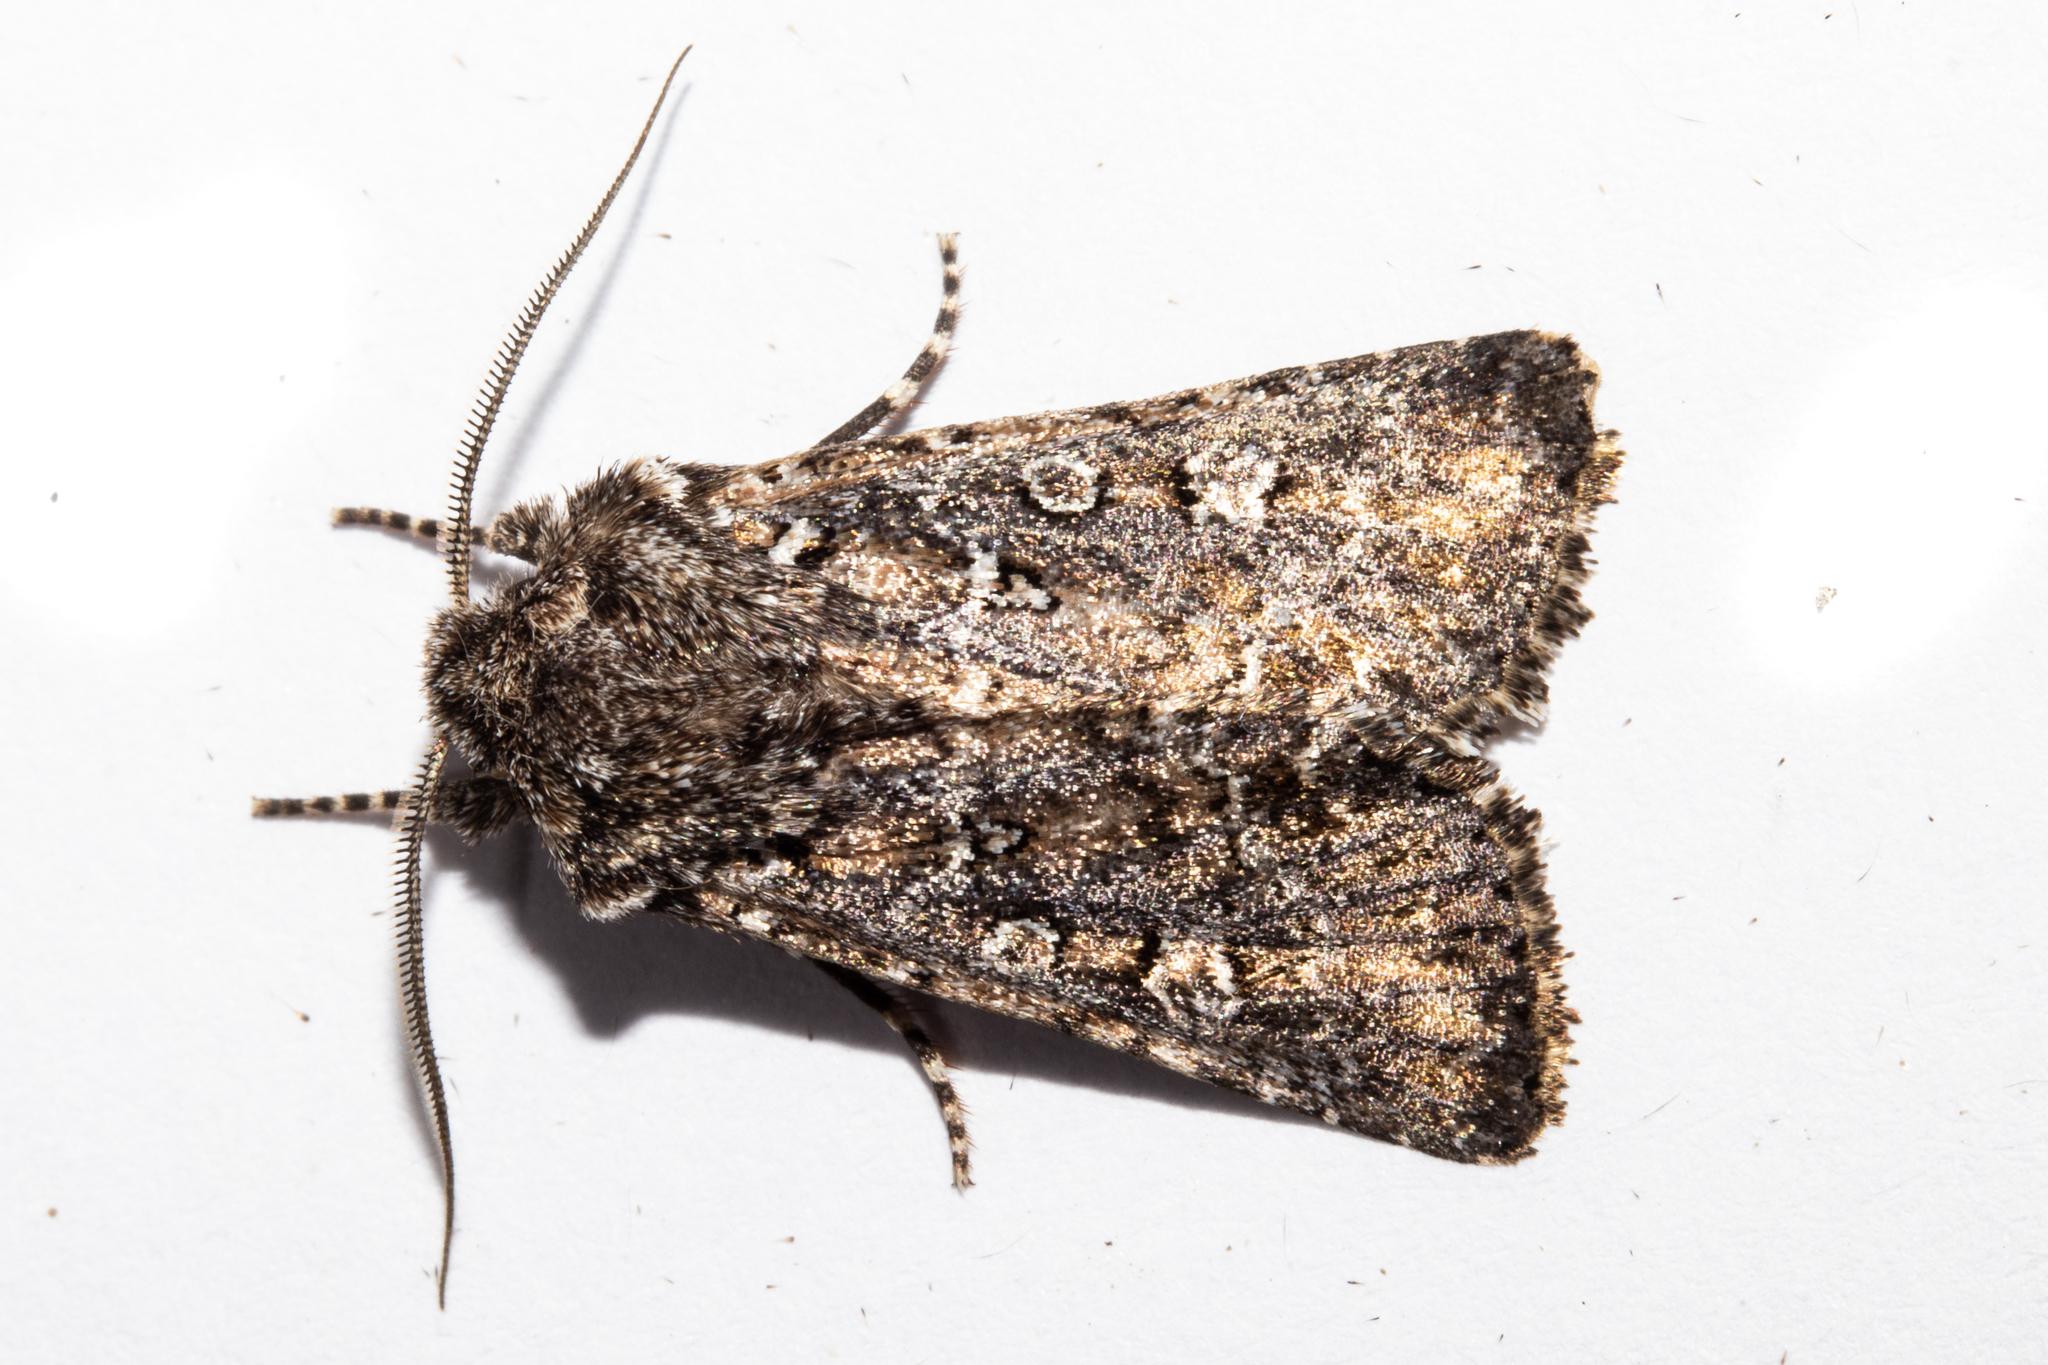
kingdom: Animalia
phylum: Arthropoda
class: Insecta
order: Lepidoptera
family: Noctuidae
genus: Ichneutica
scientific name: Ichneutica lithias
